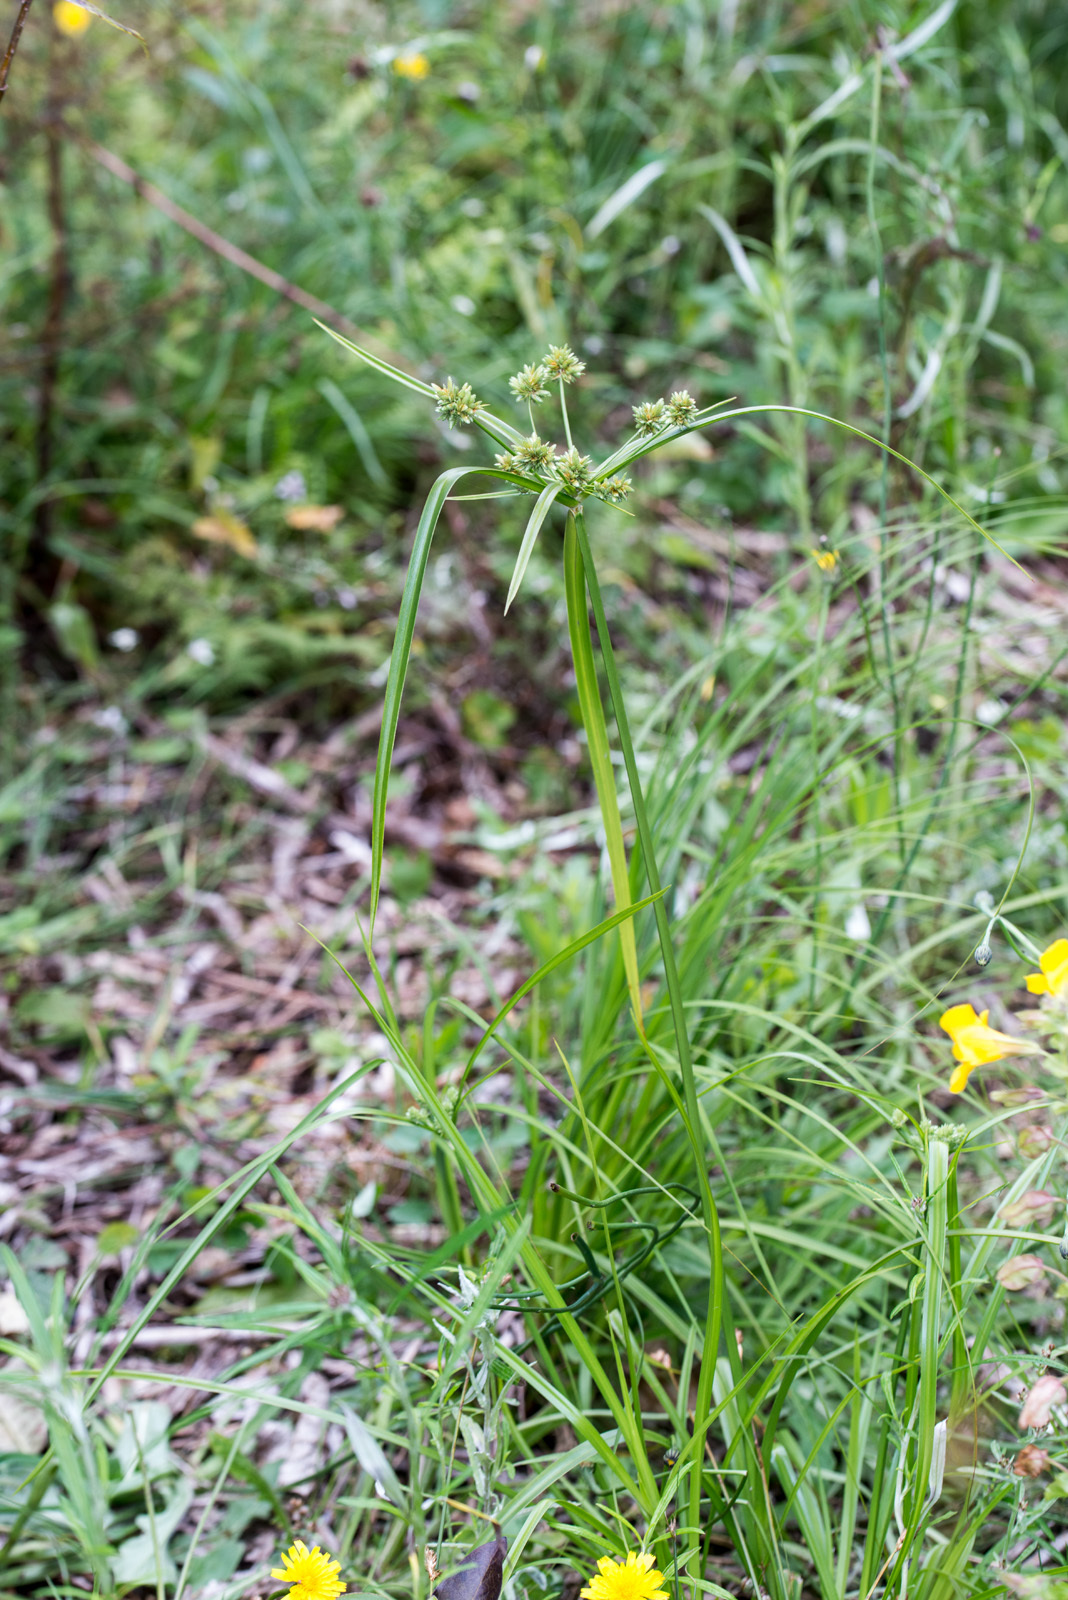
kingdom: Plantae
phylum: Tracheophyta
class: Liliopsida
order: Poales
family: Cyperaceae
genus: Cyperus
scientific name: Cyperus eragrostis
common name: Tall flatsedge
